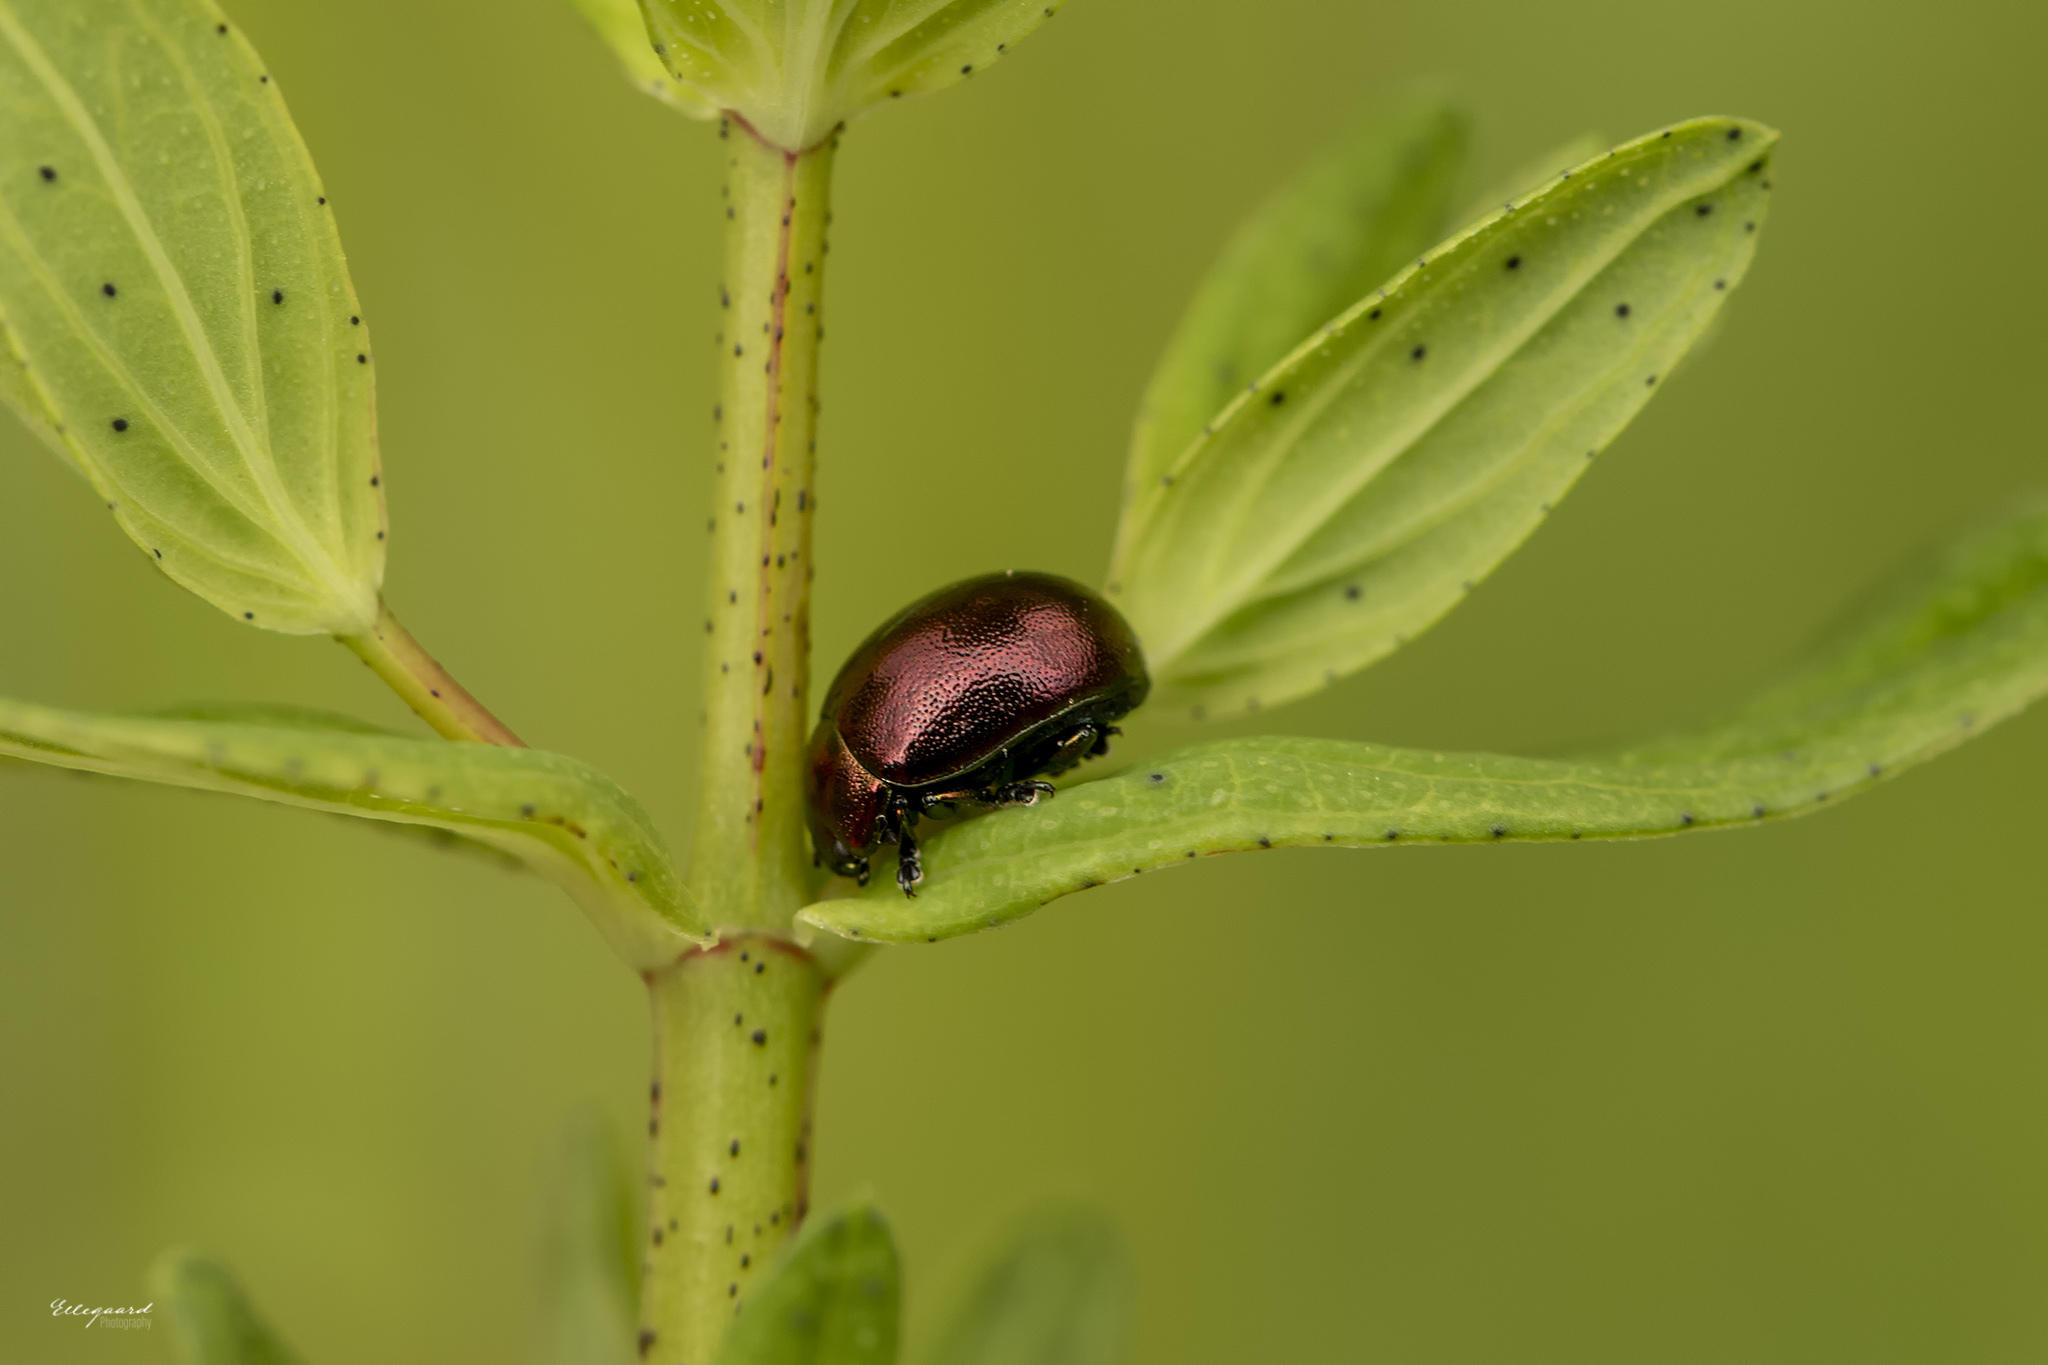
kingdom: Animalia
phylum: Arthropoda
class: Insecta
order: Coleoptera
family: Chrysomelidae
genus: Chrysolina
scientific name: Chrysolina varians
